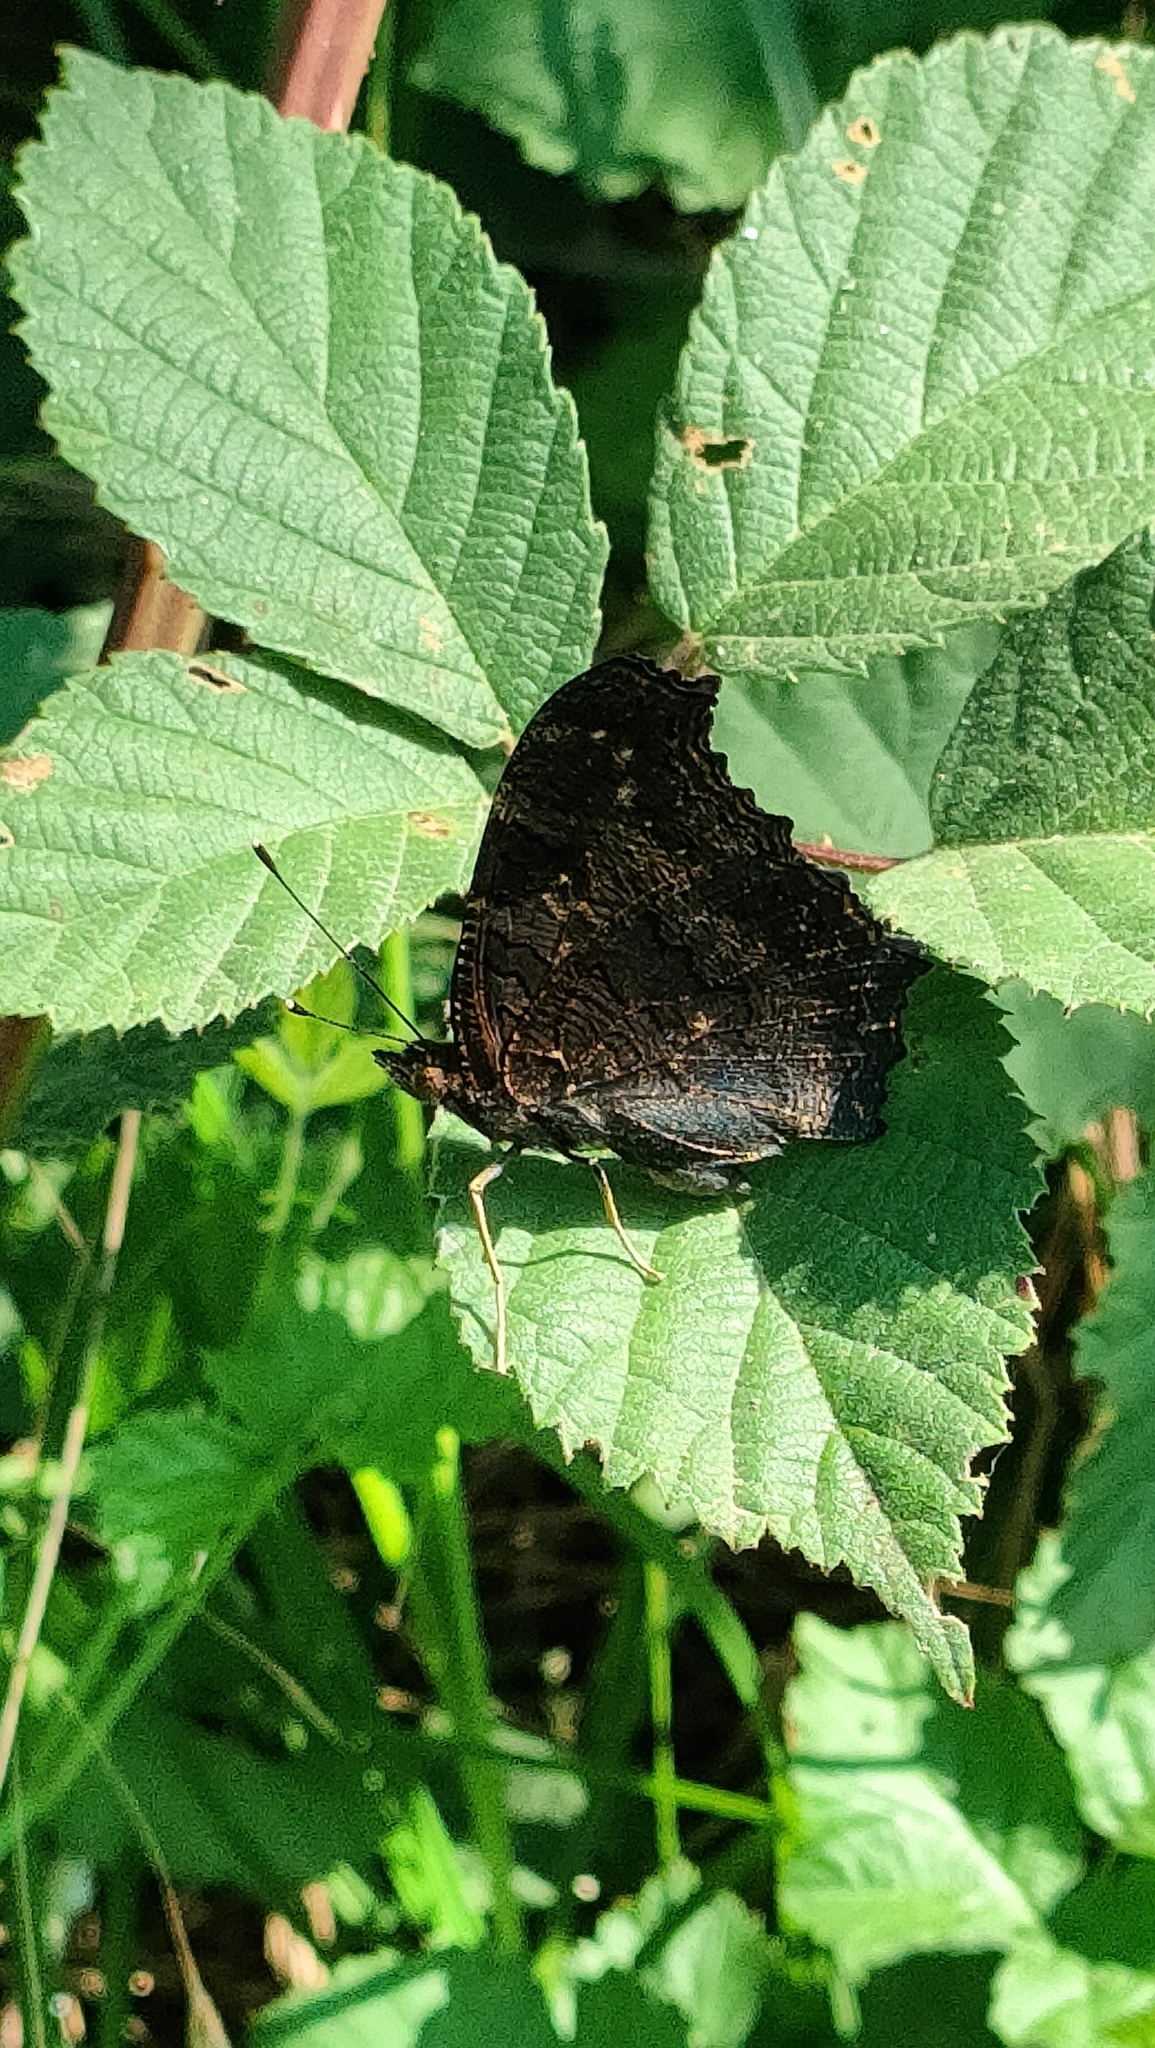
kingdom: Animalia
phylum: Arthropoda
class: Insecta
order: Lepidoptera
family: Nymphalidae
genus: Aglais
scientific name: Aglais io
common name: Peacock
